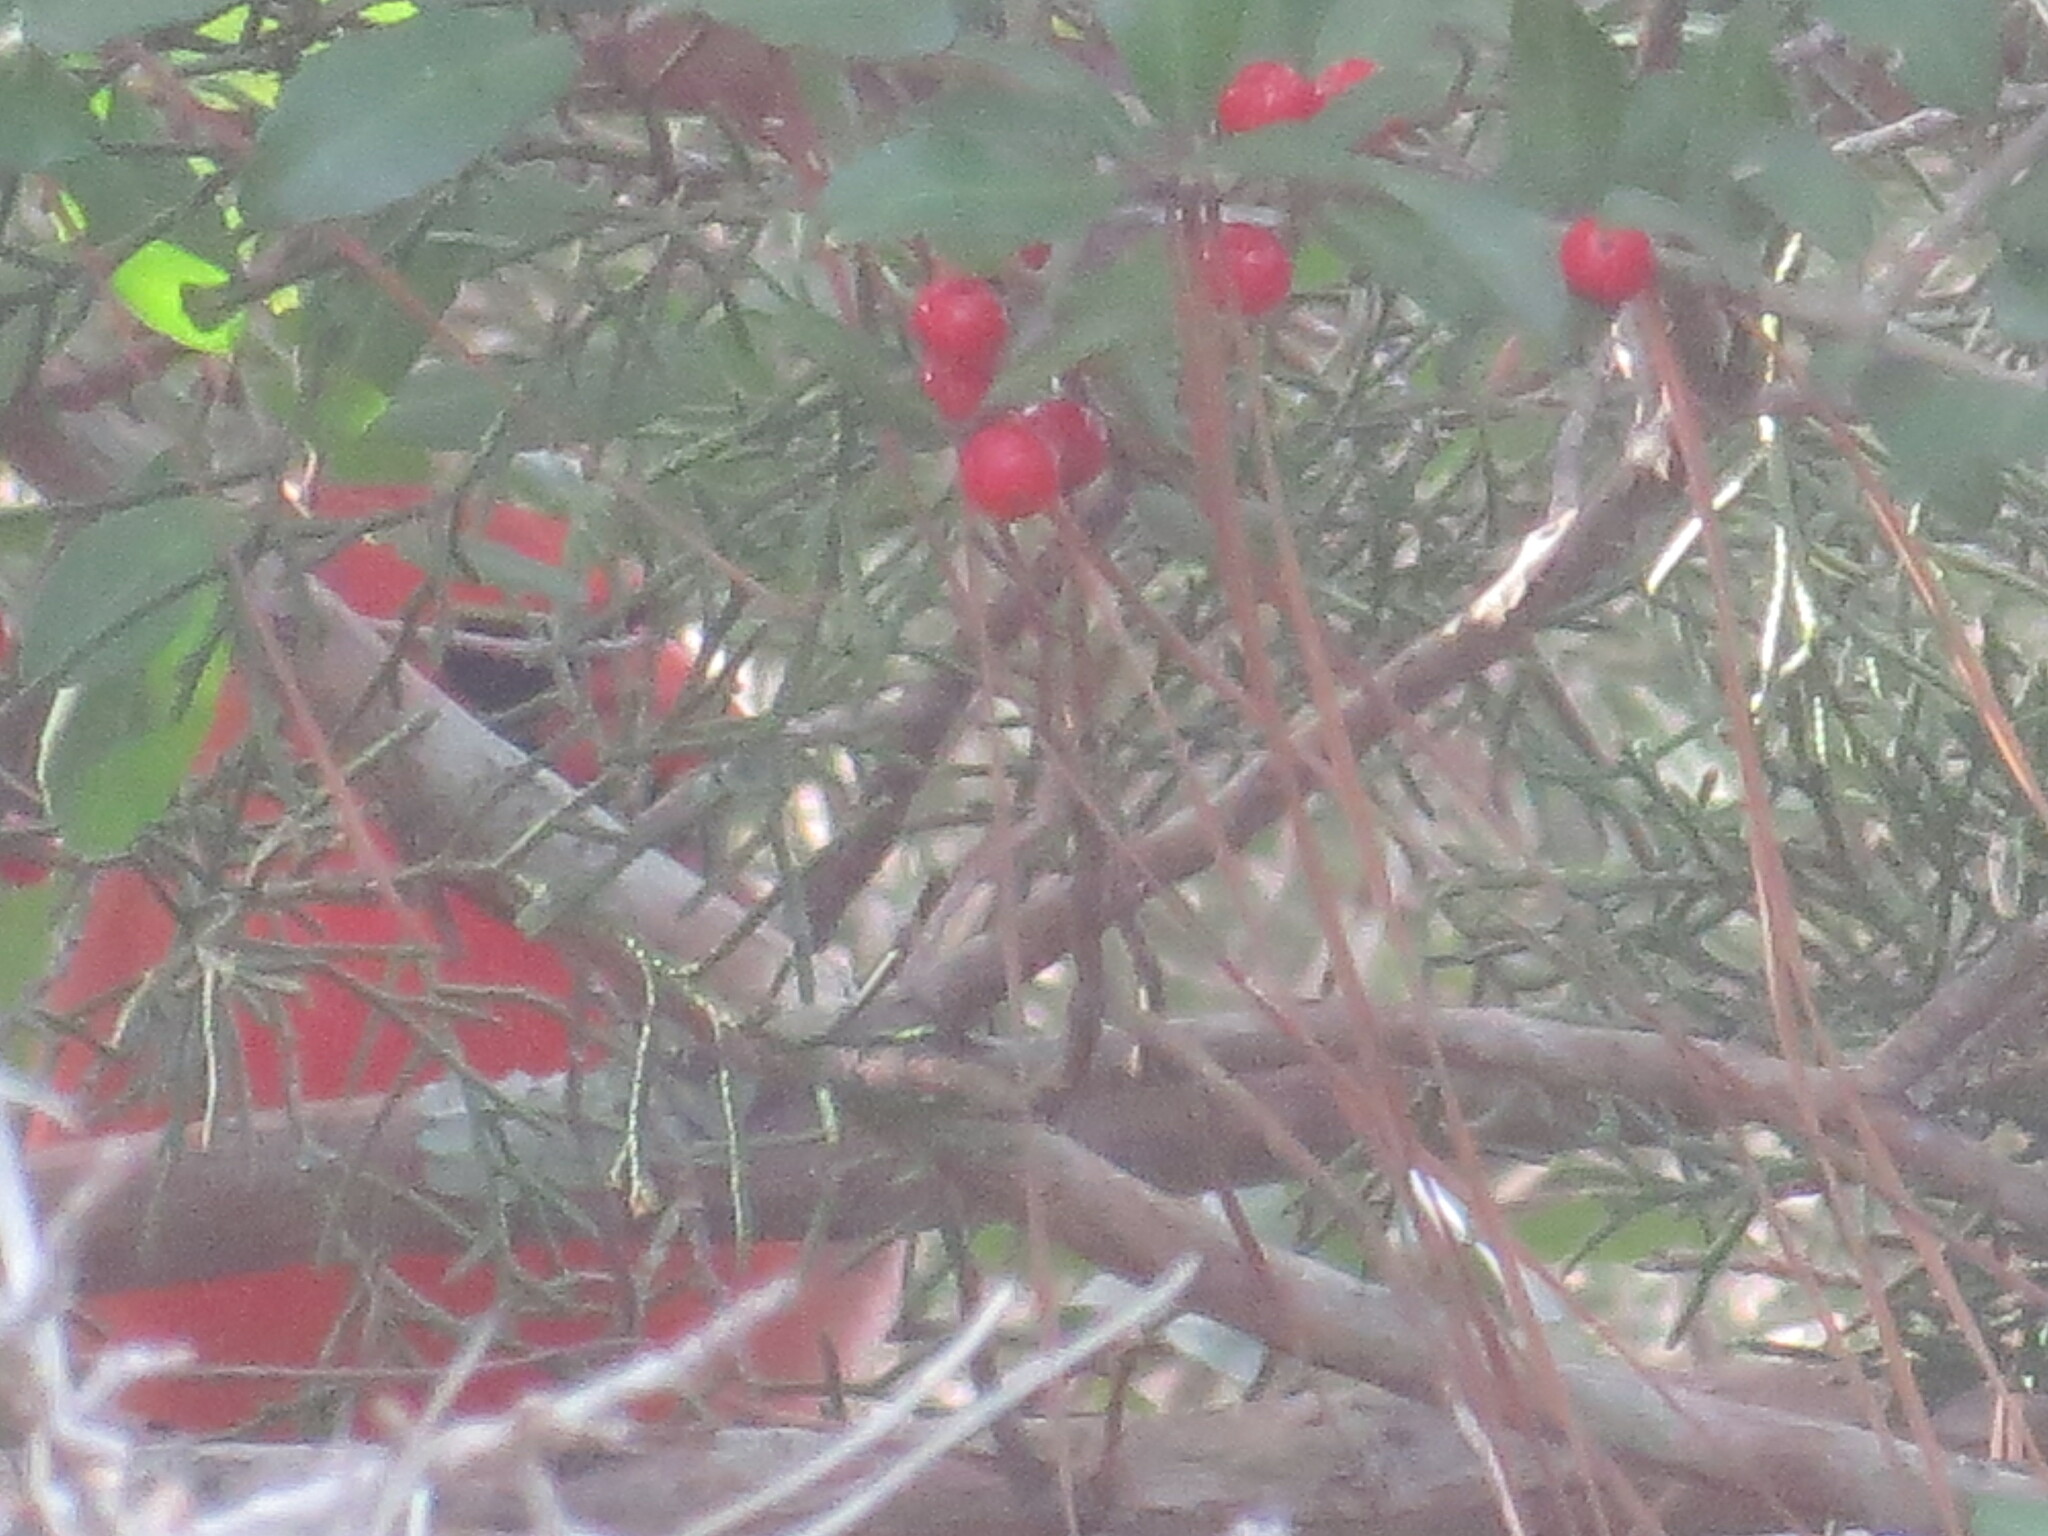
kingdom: Plantae
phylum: Tracheophyta
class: Magnoliopsida
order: Aquifoliales
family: Aquifoliaceae
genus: Ilex
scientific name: Ilex vomitoria
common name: Yaupon holly
